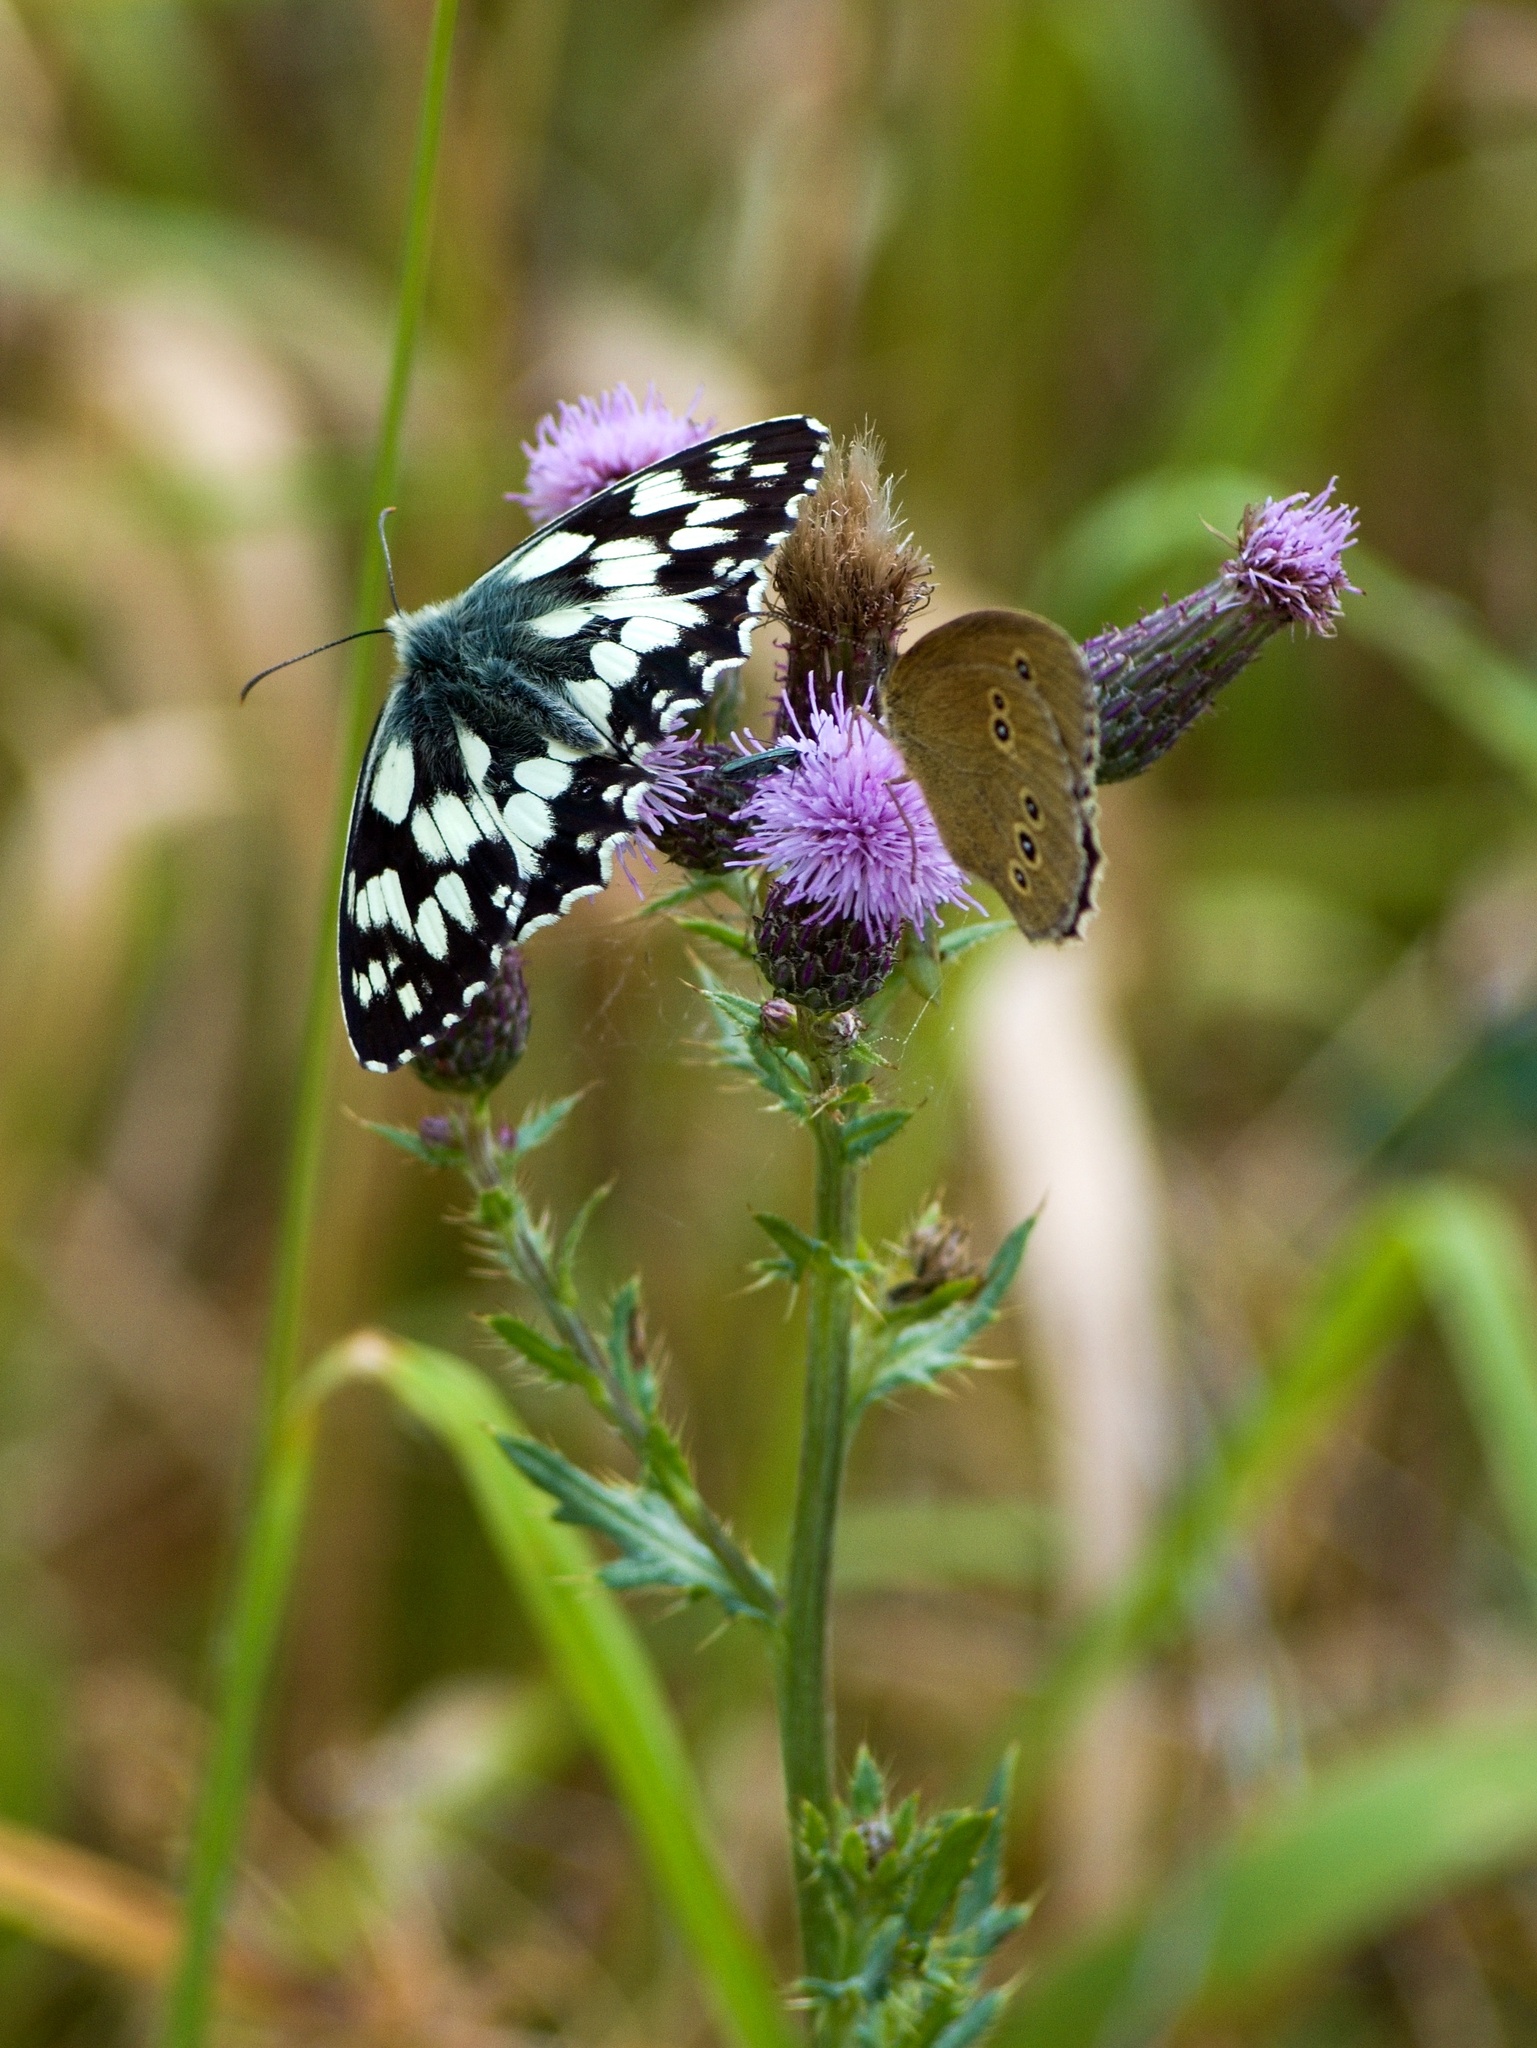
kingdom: Animalia
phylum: Arthropoda
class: Insecta
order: Lepidoptera
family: Nymphalidae
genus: Melanargia
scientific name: Melanargia galathea
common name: Marbled white
